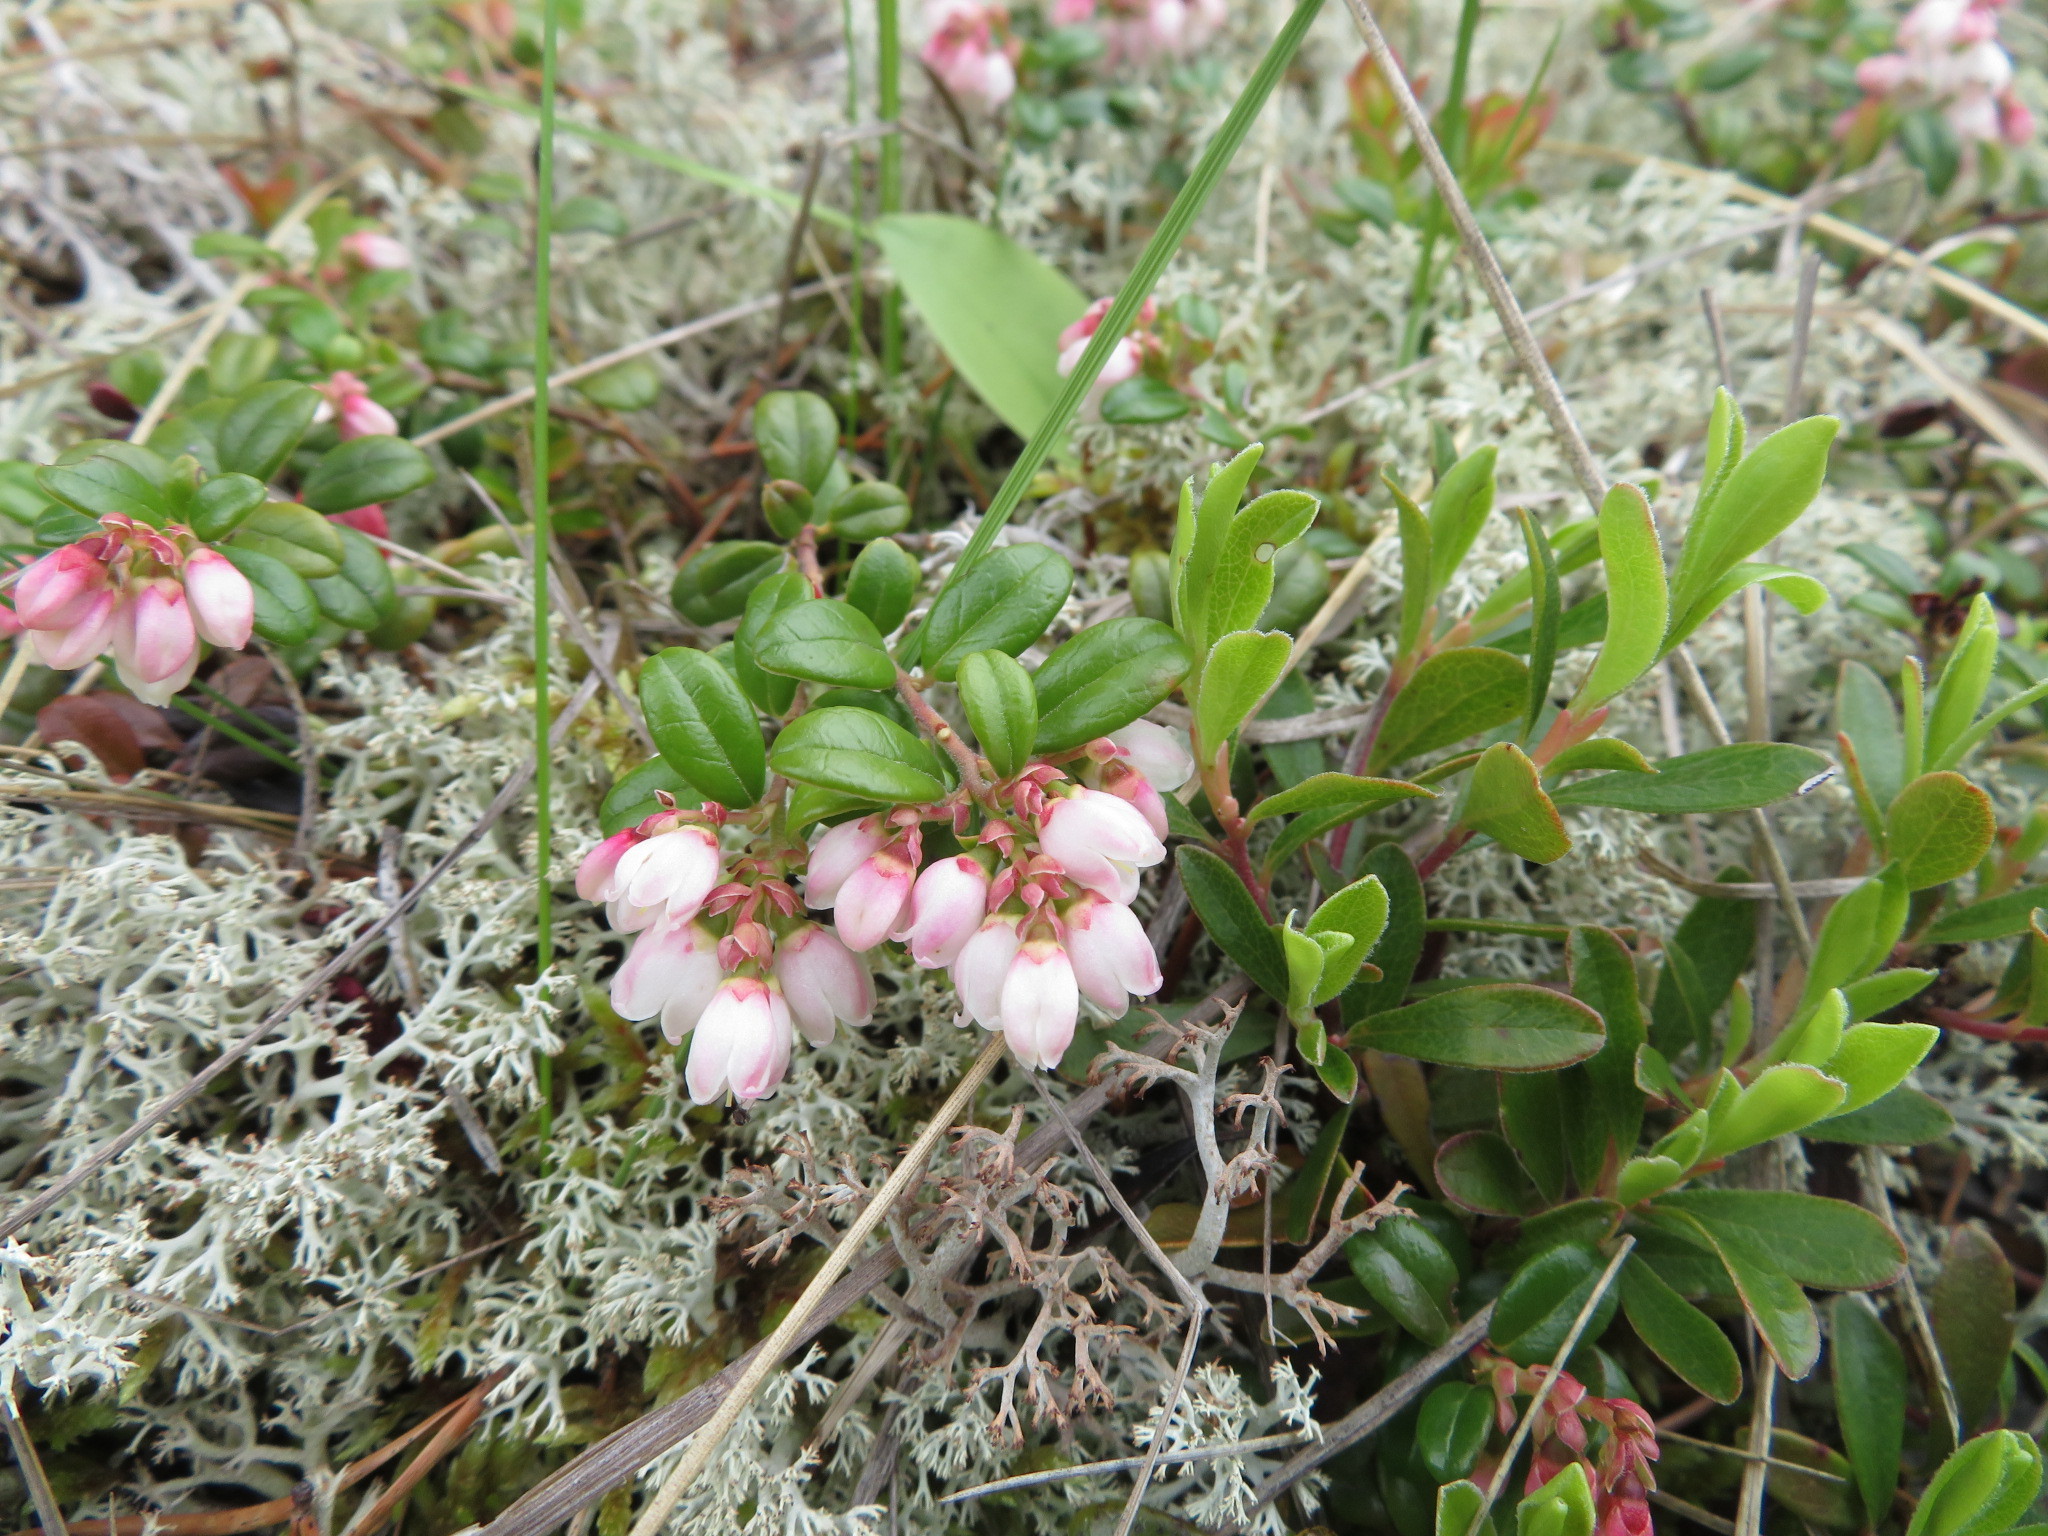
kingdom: Plantae
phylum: Tracheophyta
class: Magnoliopsida
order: Ericales
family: Ericaceae
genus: Vaccinium
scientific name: Vaccinium vitis-idaea
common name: Cowberry
